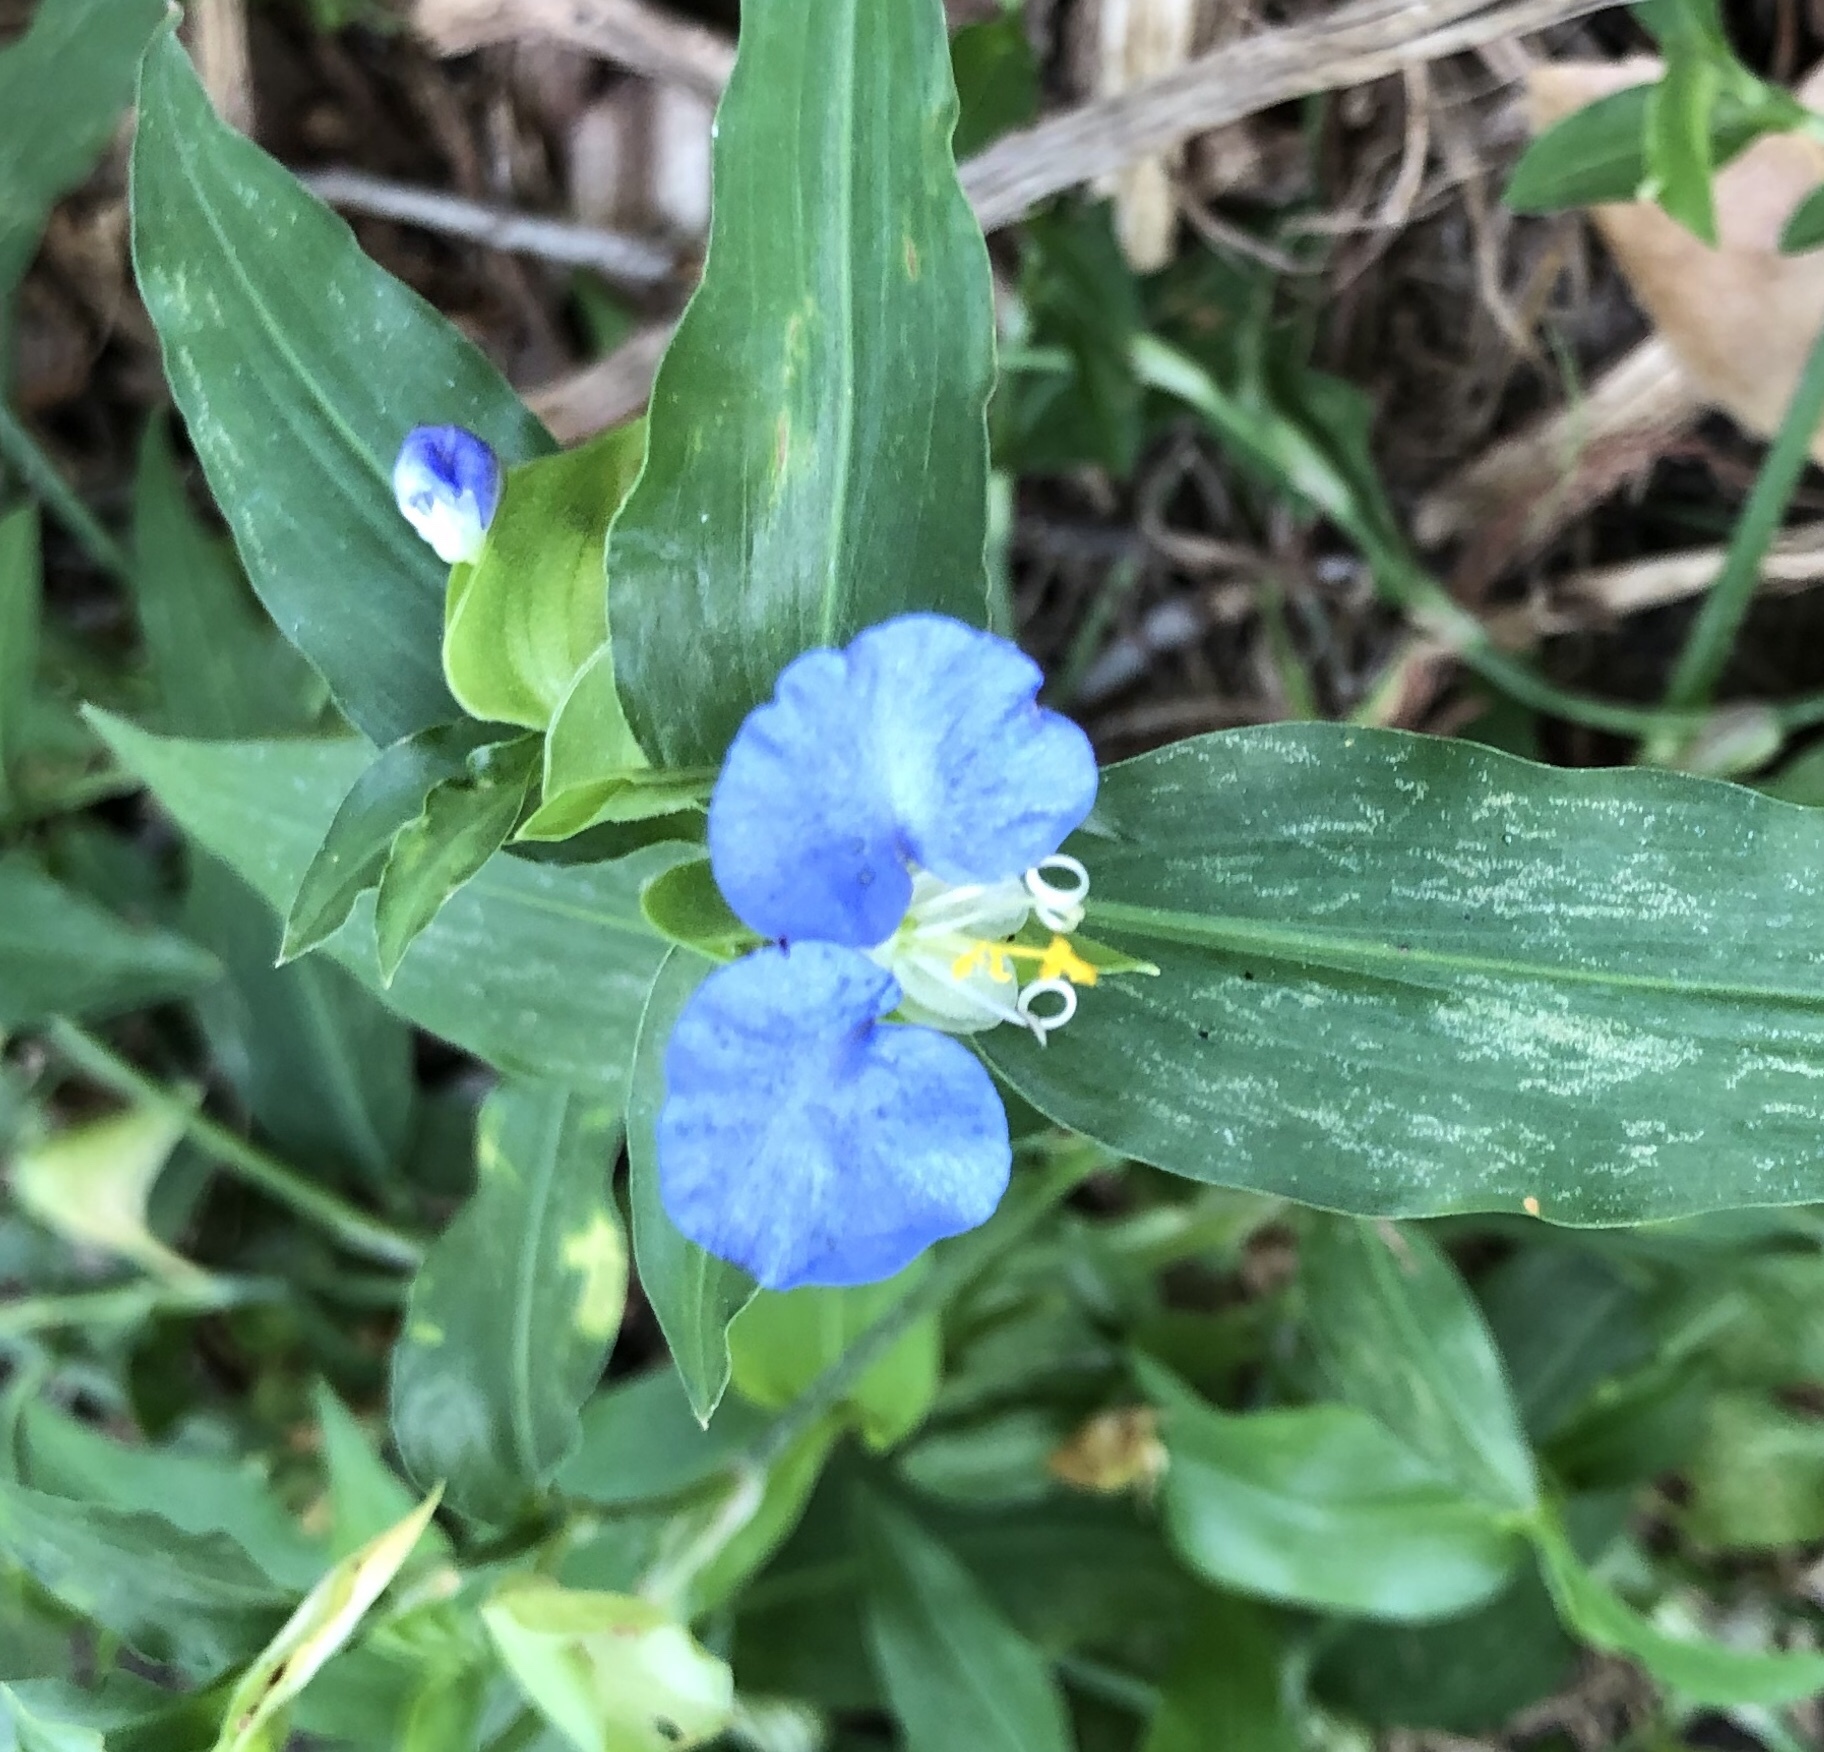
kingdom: Plantae
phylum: Tracheophyta
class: Liliopsida
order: Commelinales
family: Commelinaceae
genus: Commelina
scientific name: Commelina erecta
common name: Blousel blommetjie
